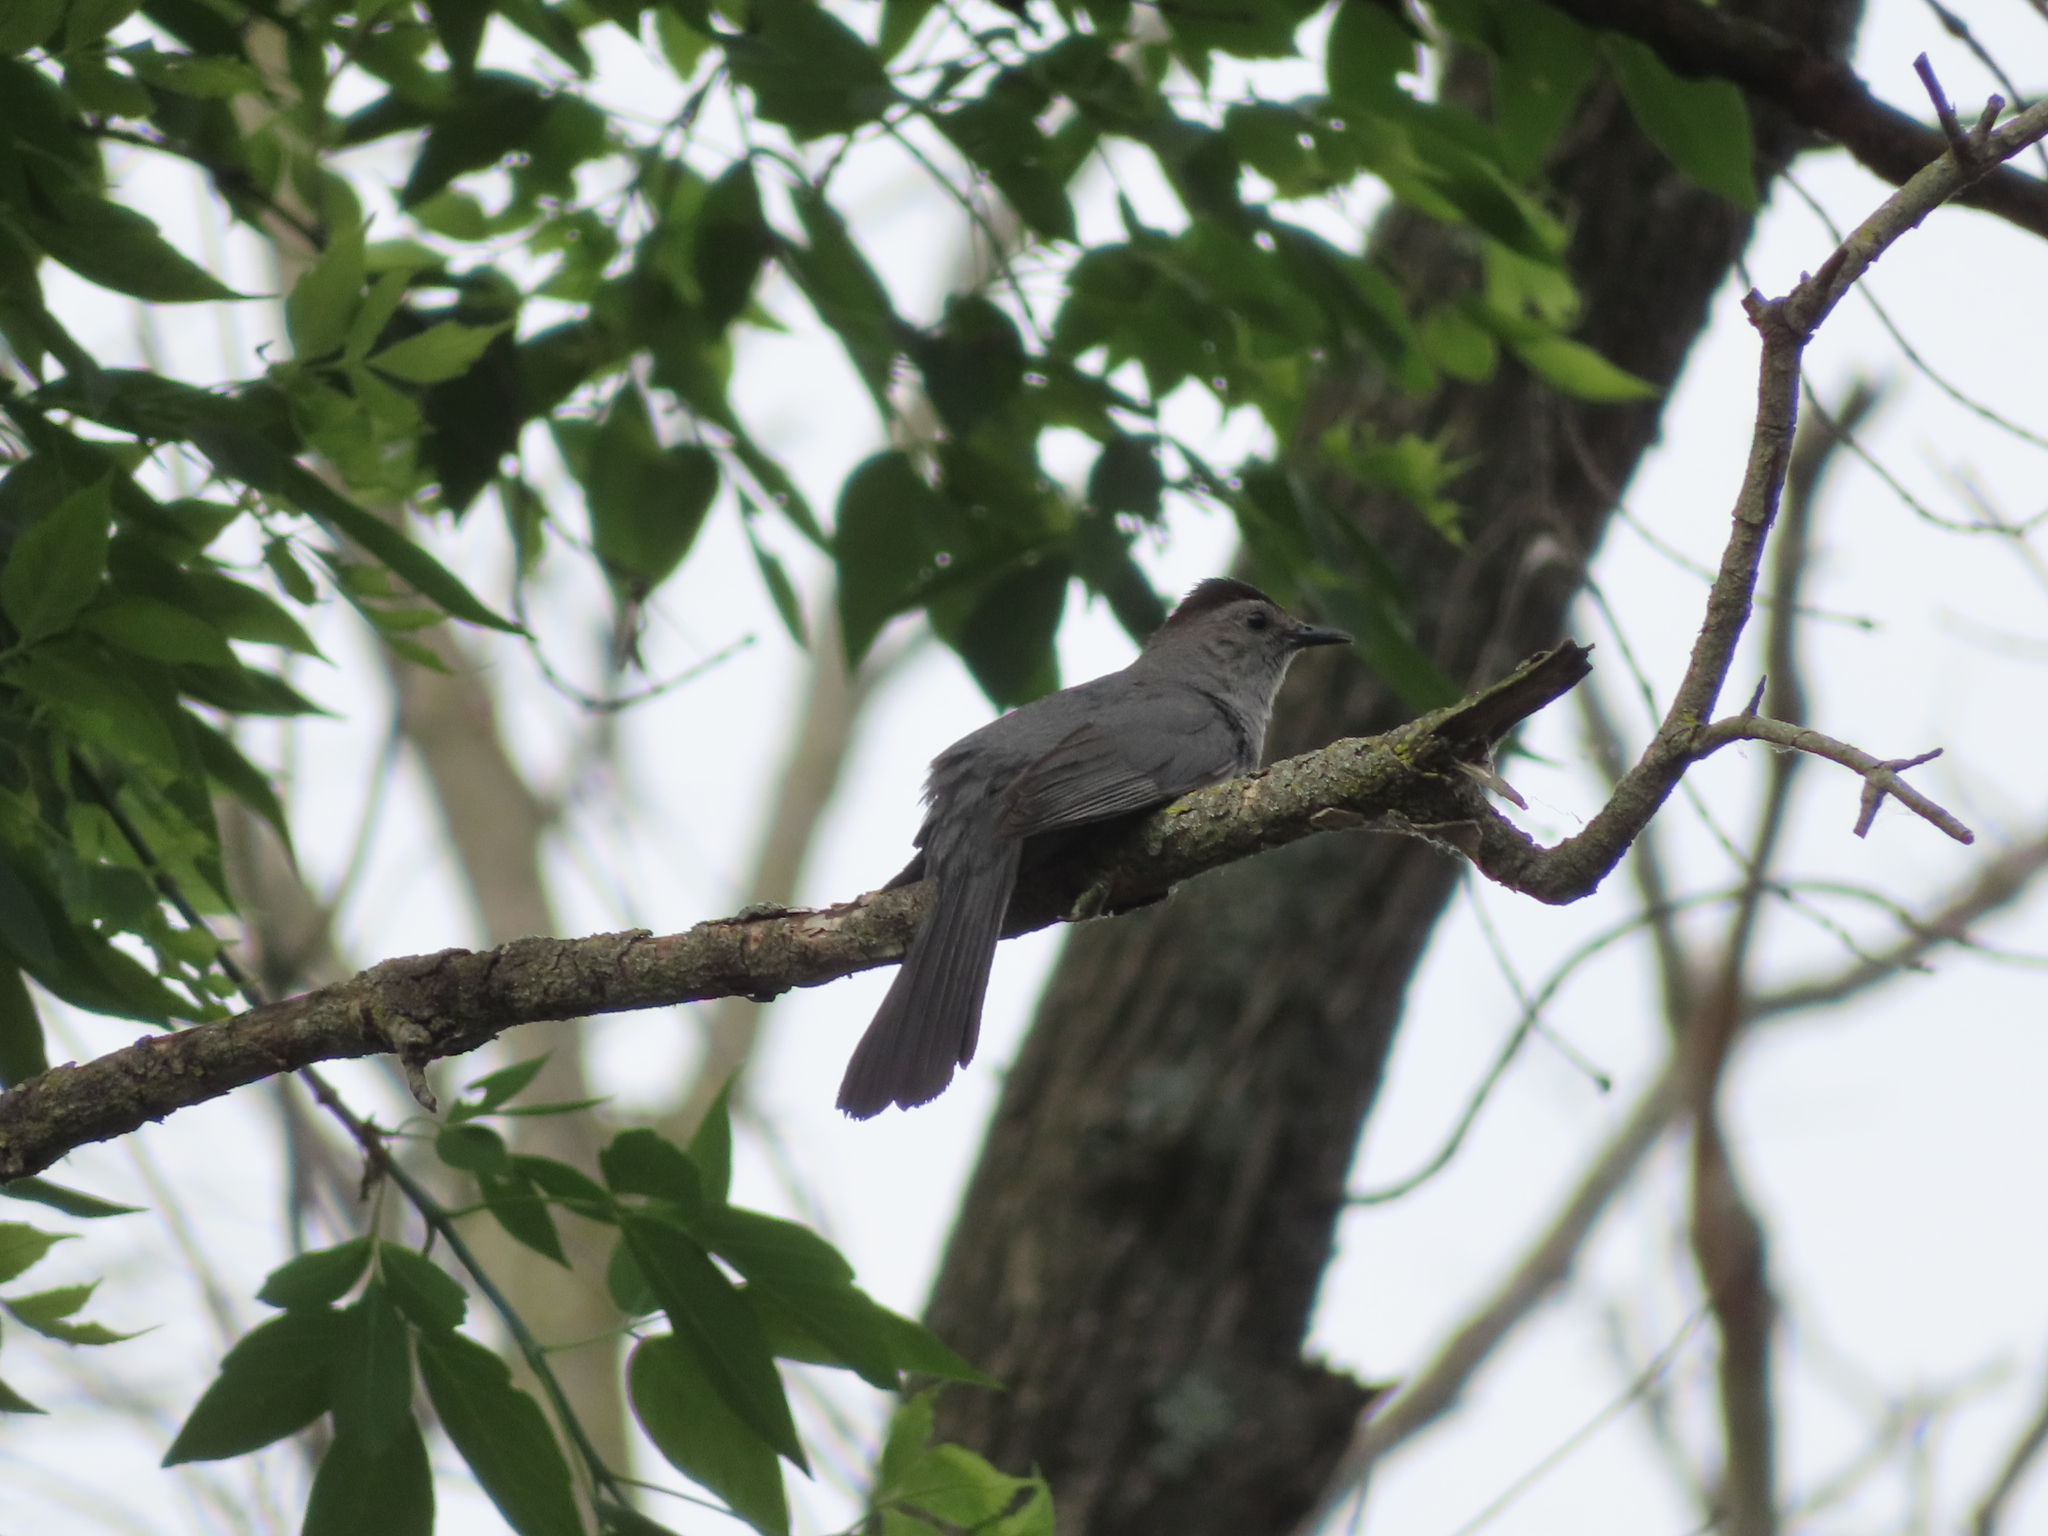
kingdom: Animalia
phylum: Chordata
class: Aves
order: Passeriformes
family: Mimidae
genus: Dumetella
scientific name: Dumetella carolinensis
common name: Gray catbird
